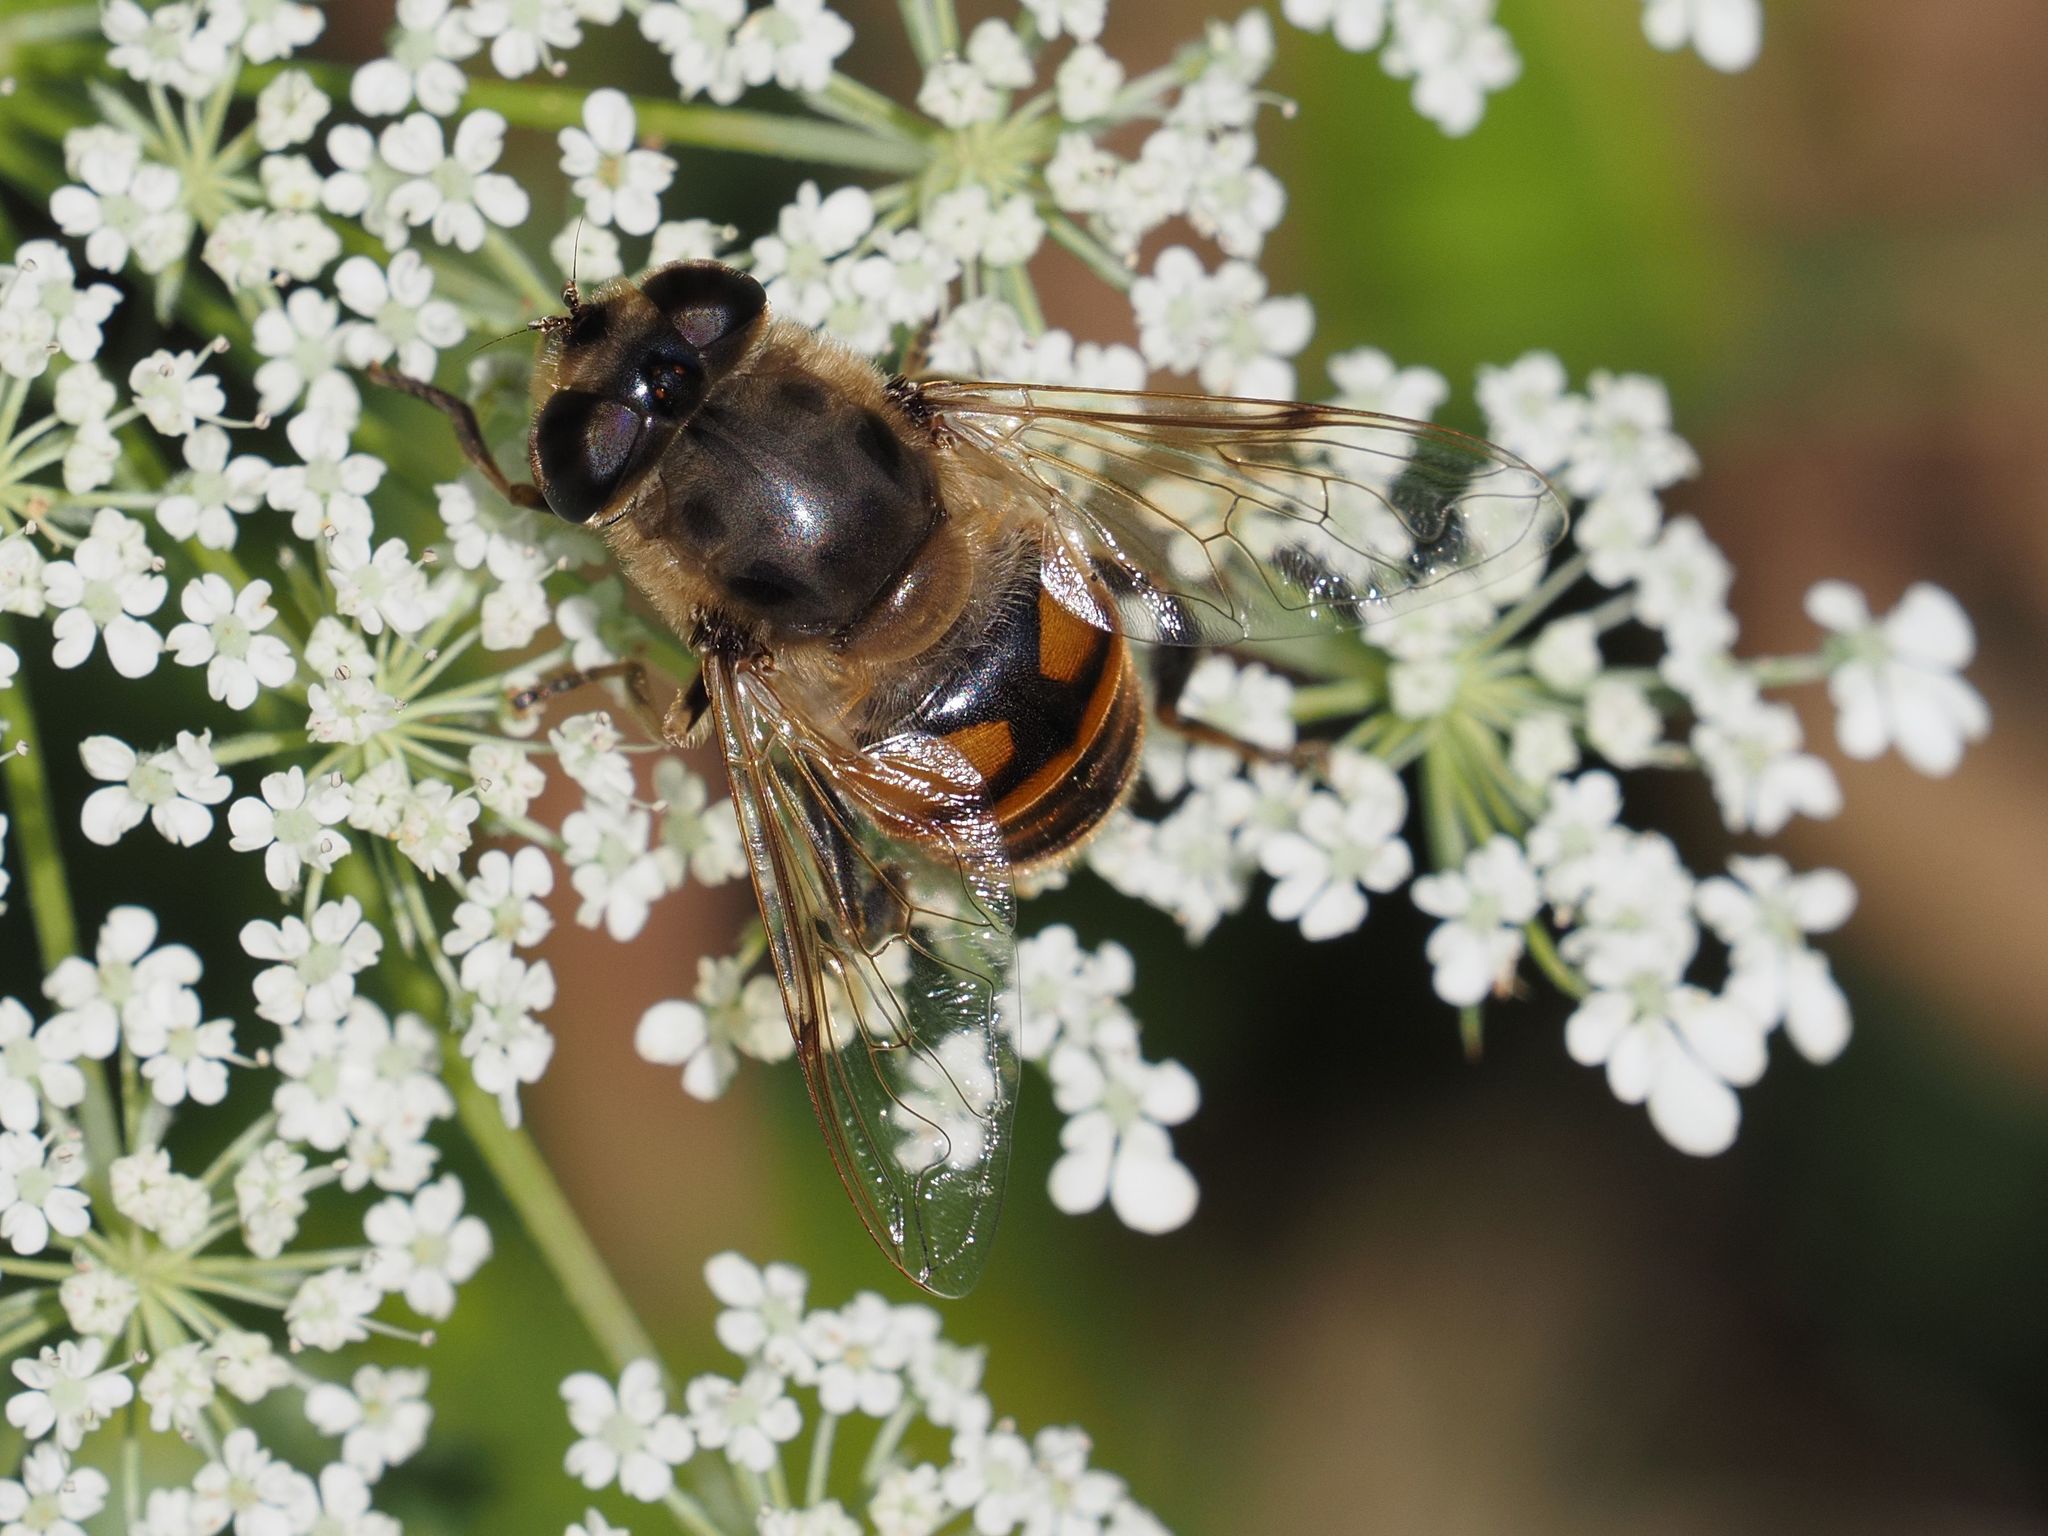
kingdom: Animalia
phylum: Arthropoda
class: Insecta
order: Diptera
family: Syrphidae
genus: Eristalis
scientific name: Eristalis tenax
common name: Drone fly
